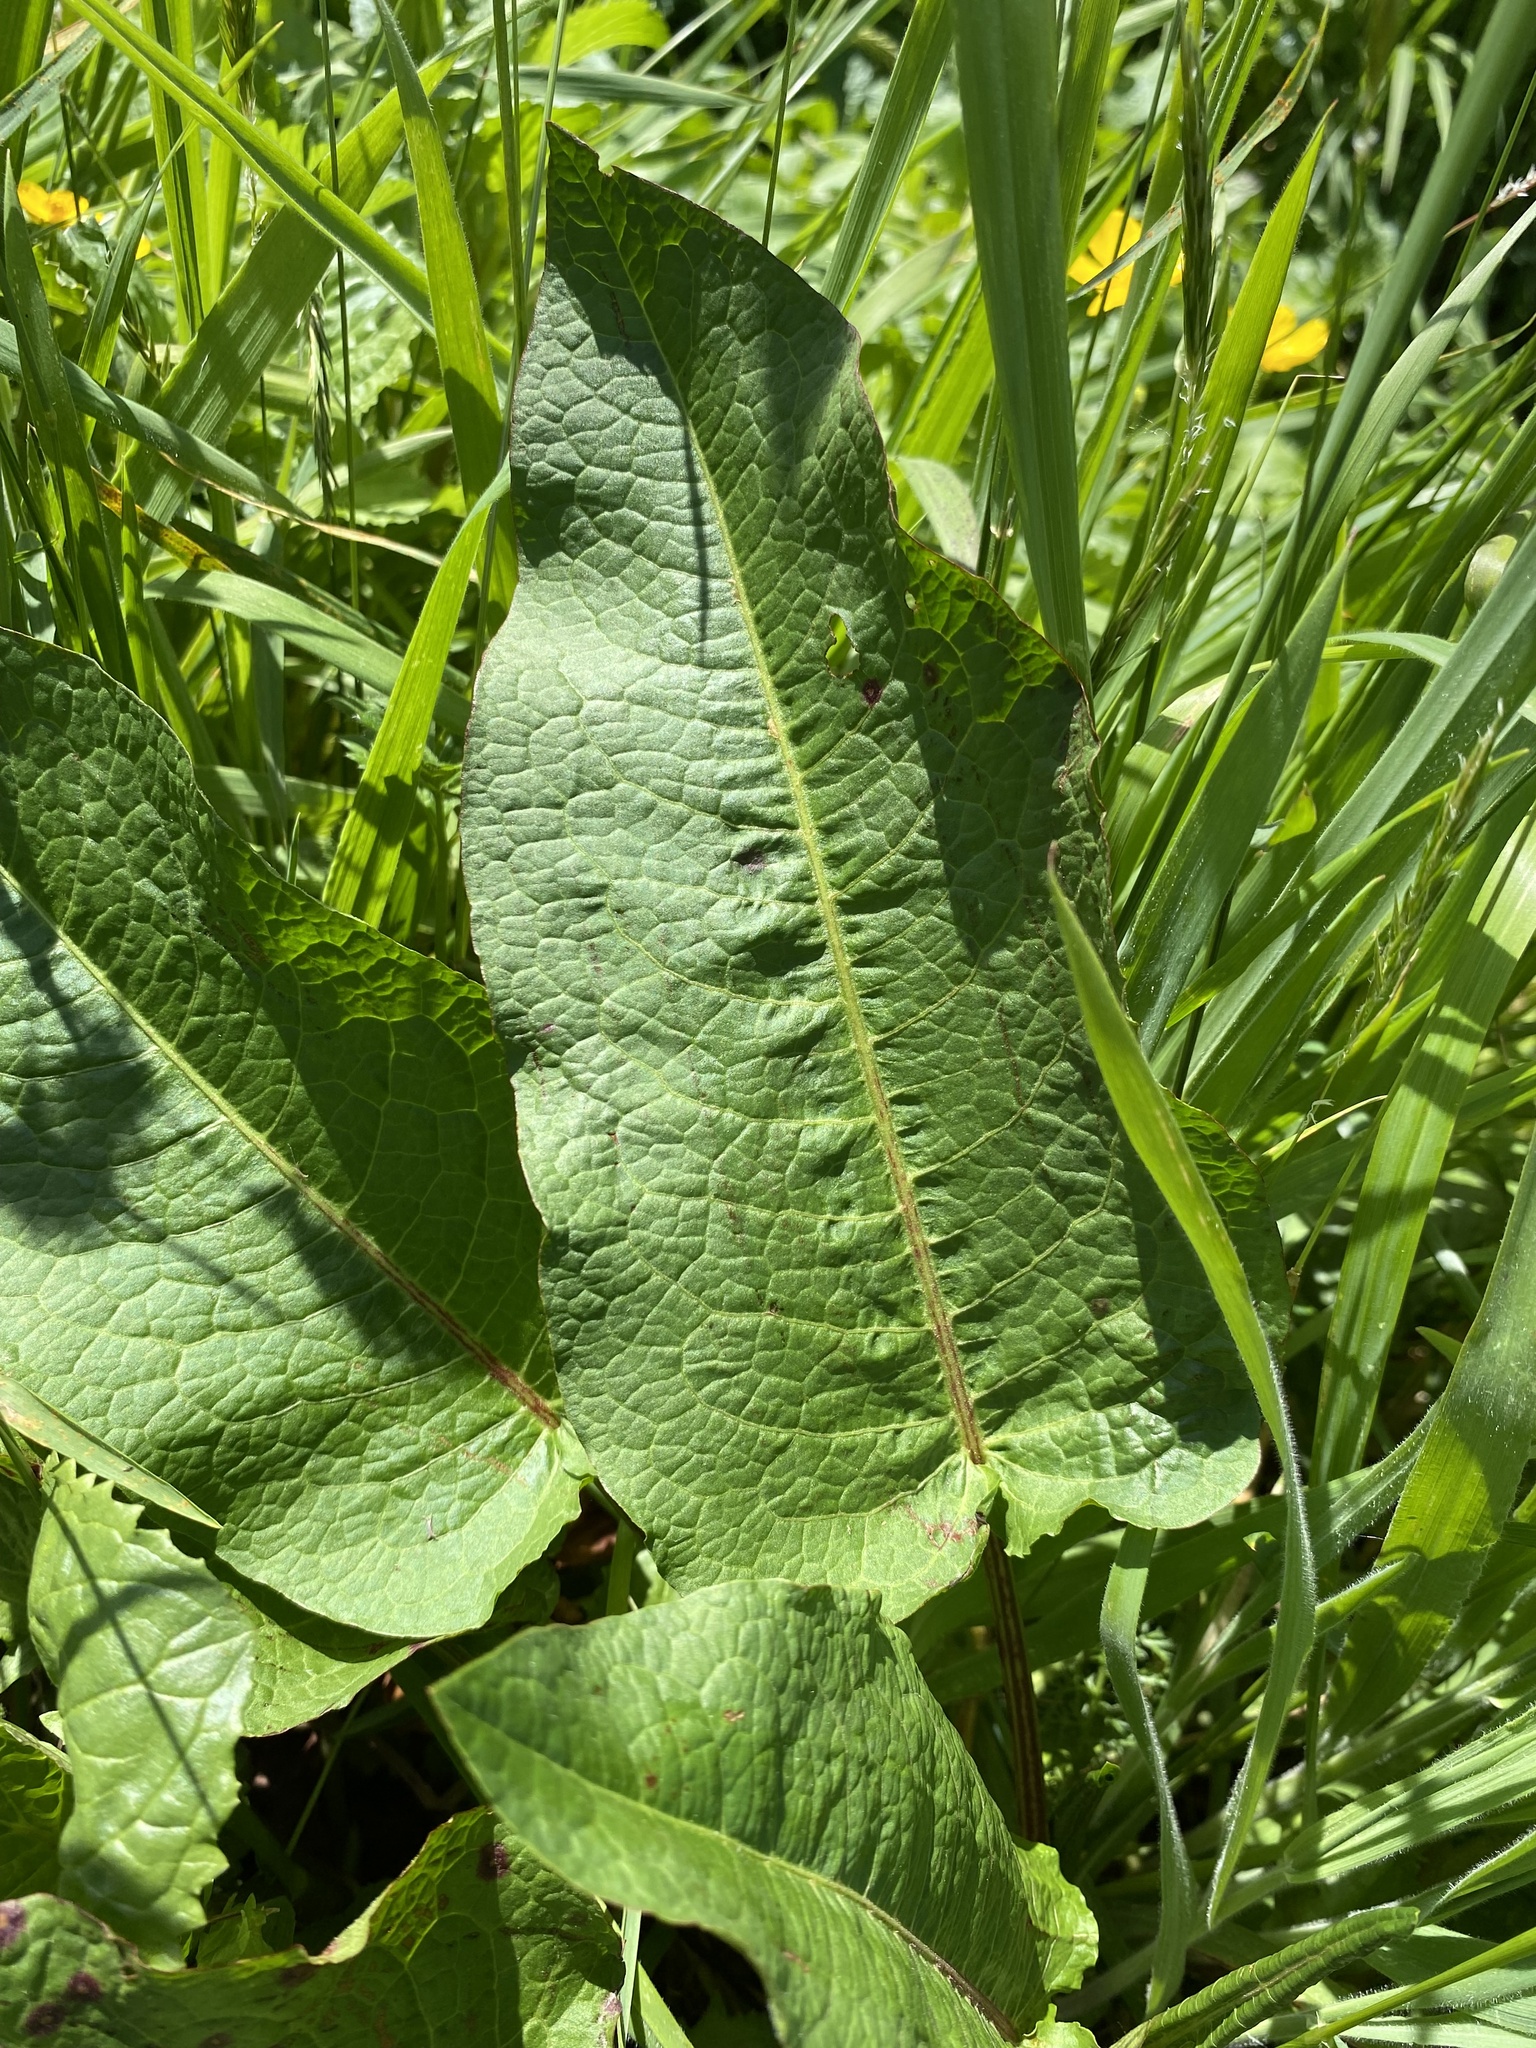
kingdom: Plantae
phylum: Tracheophyta
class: Magnoliopsida
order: Caryophyllales
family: Polygonaceae
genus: Rumex
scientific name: Rumex obtusifolius
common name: Bitter dock
